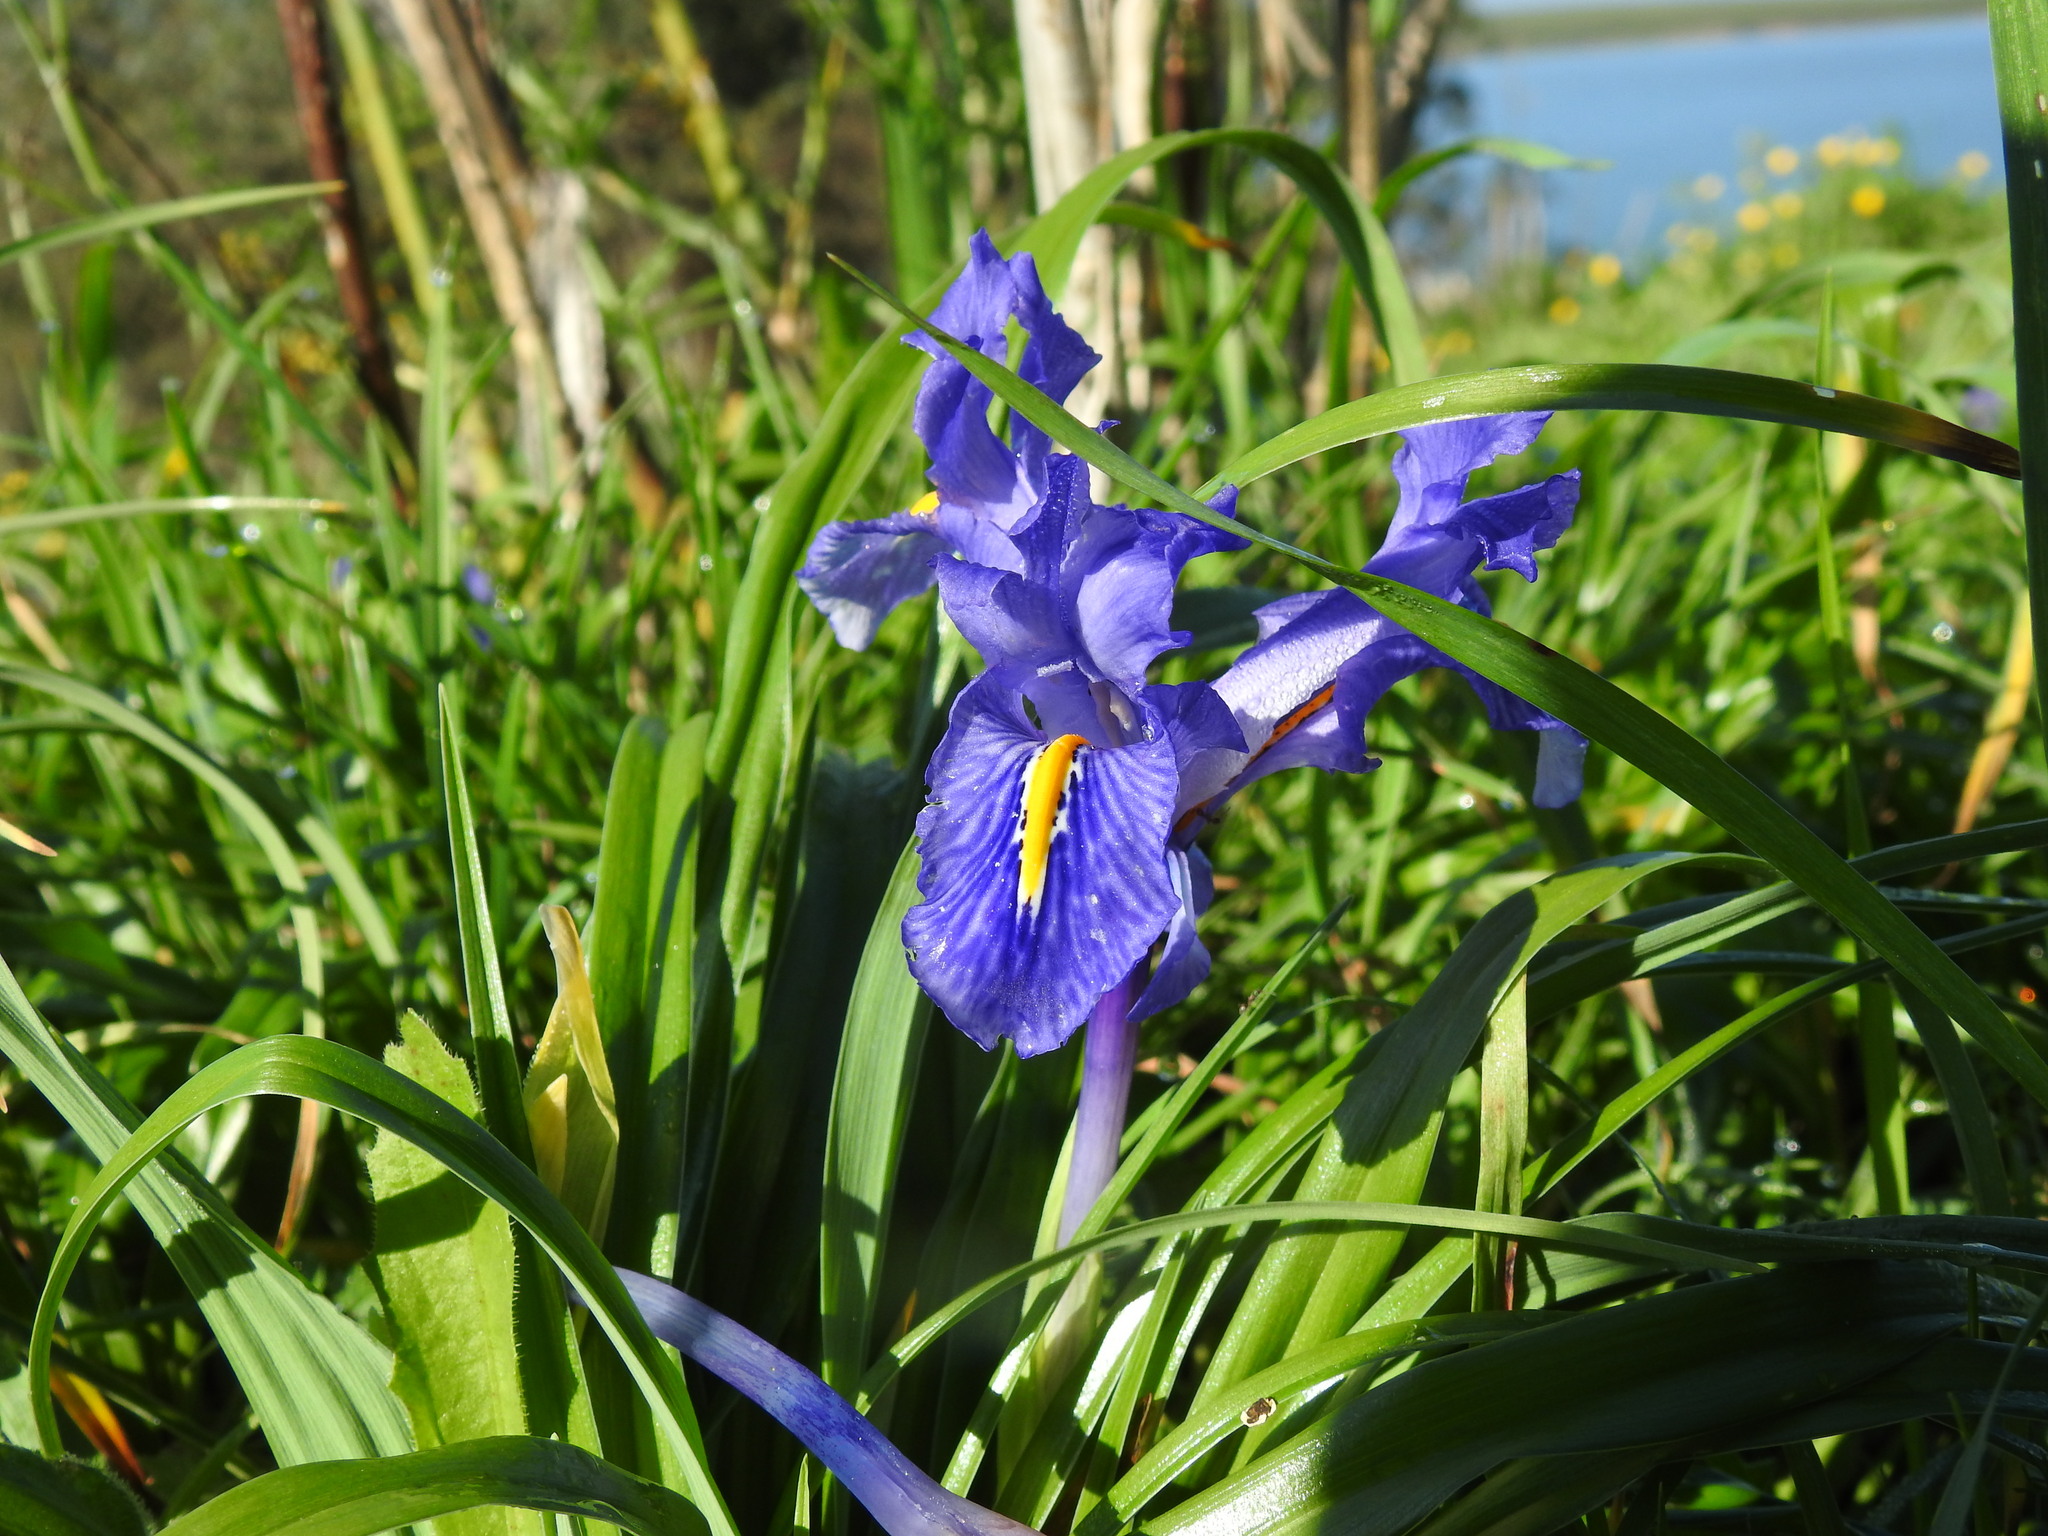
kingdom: Plantae
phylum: Tracheophyta
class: Liliopsida
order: Asparagales
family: Iridaceae
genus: Iris
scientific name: Iris planifolia
